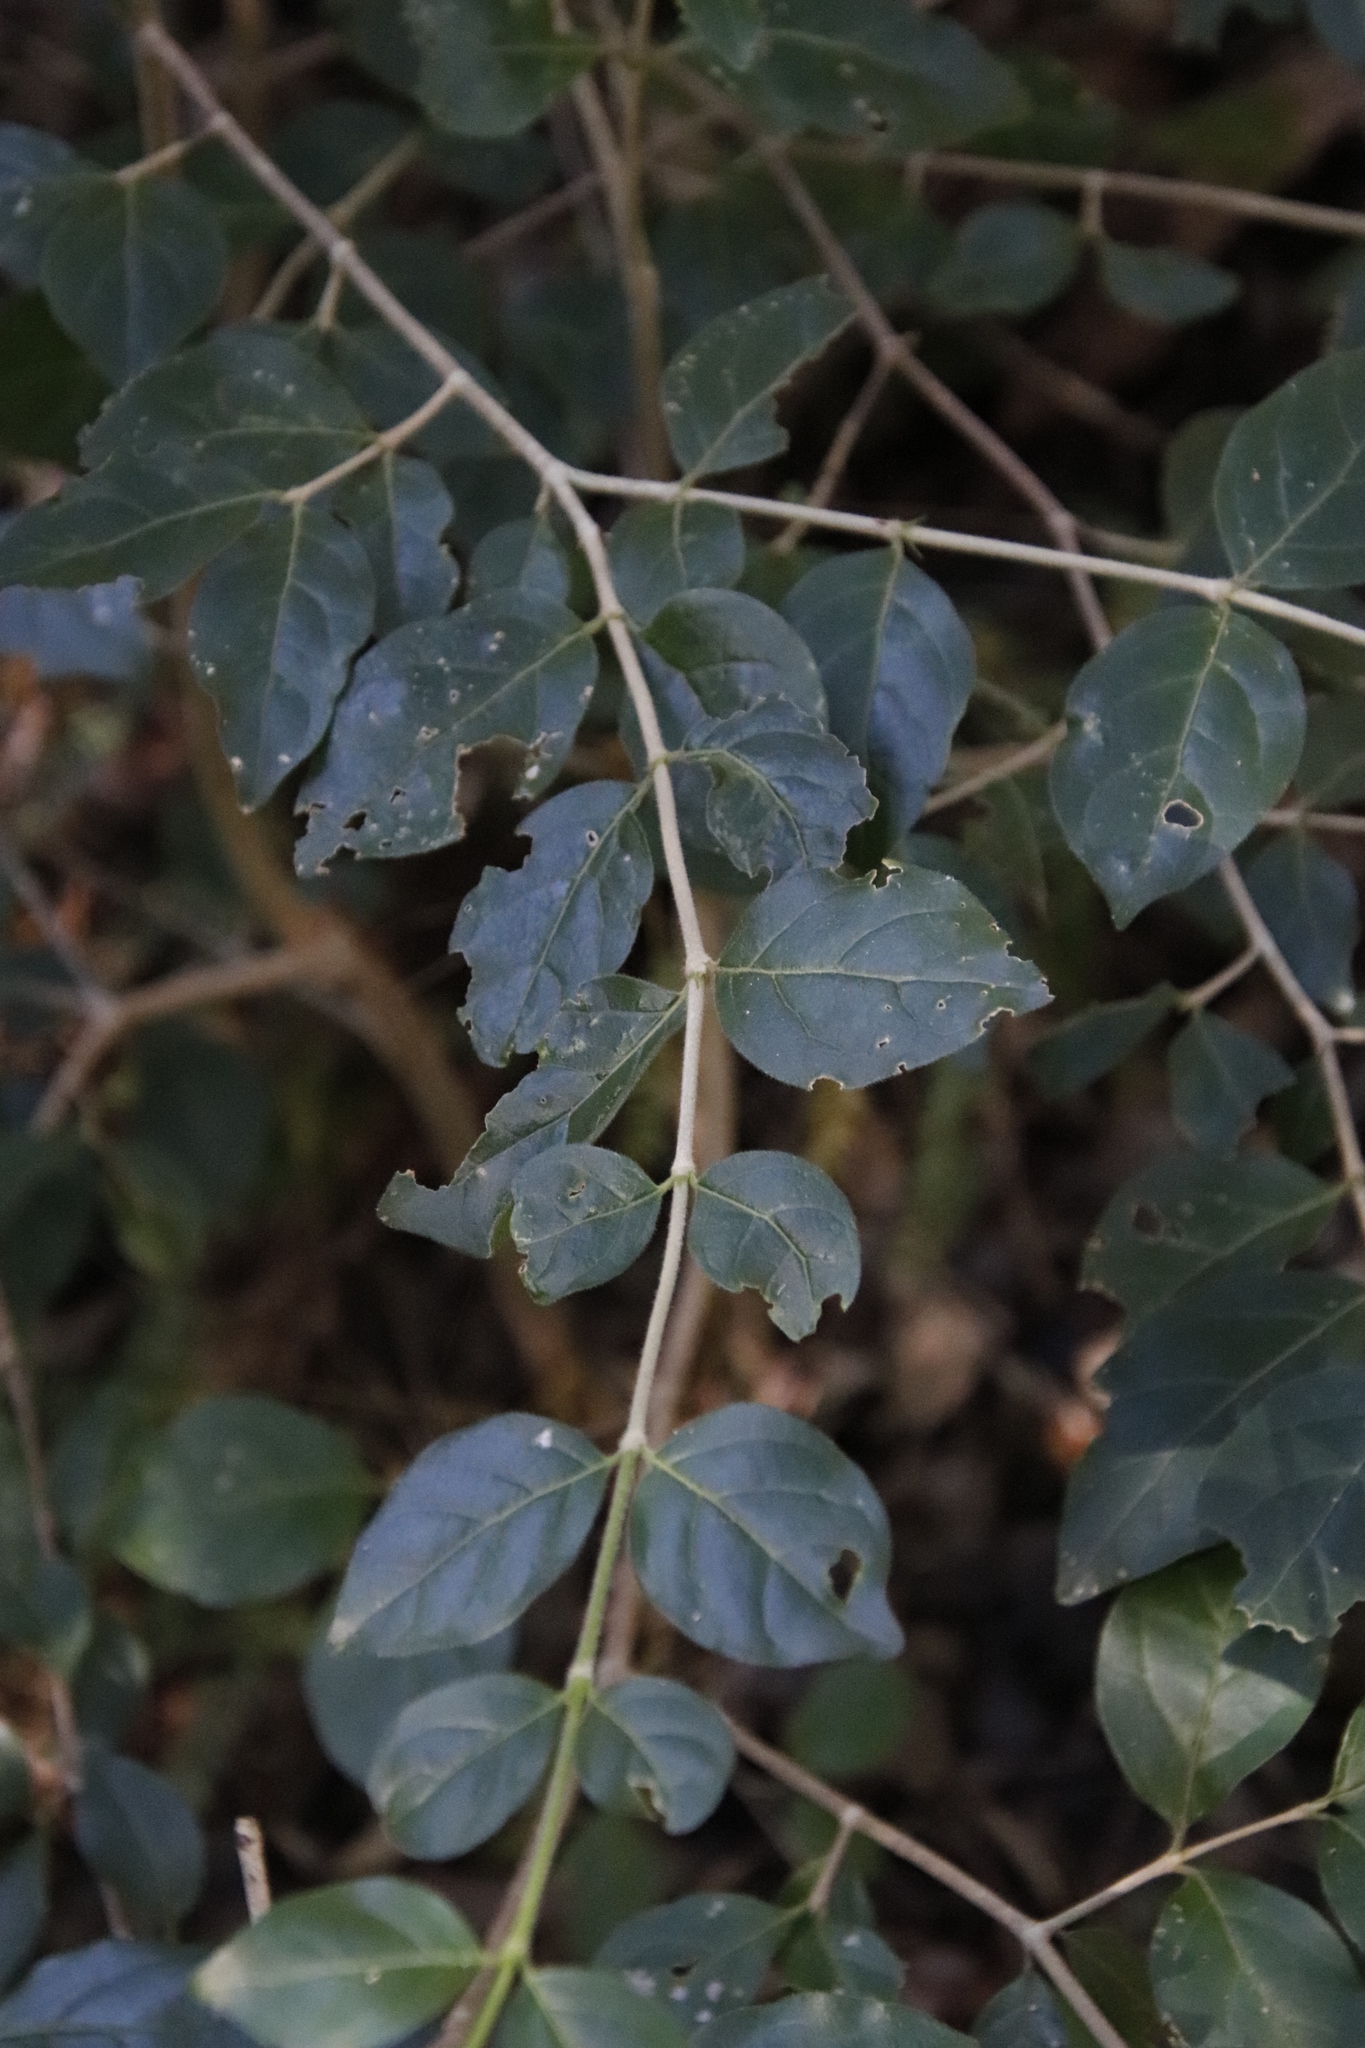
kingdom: Plantae
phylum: Tracheophyta
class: Magnoliopsida
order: Myrtales
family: Penaeaceae
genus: Olinia
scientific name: Olinia ventosa
